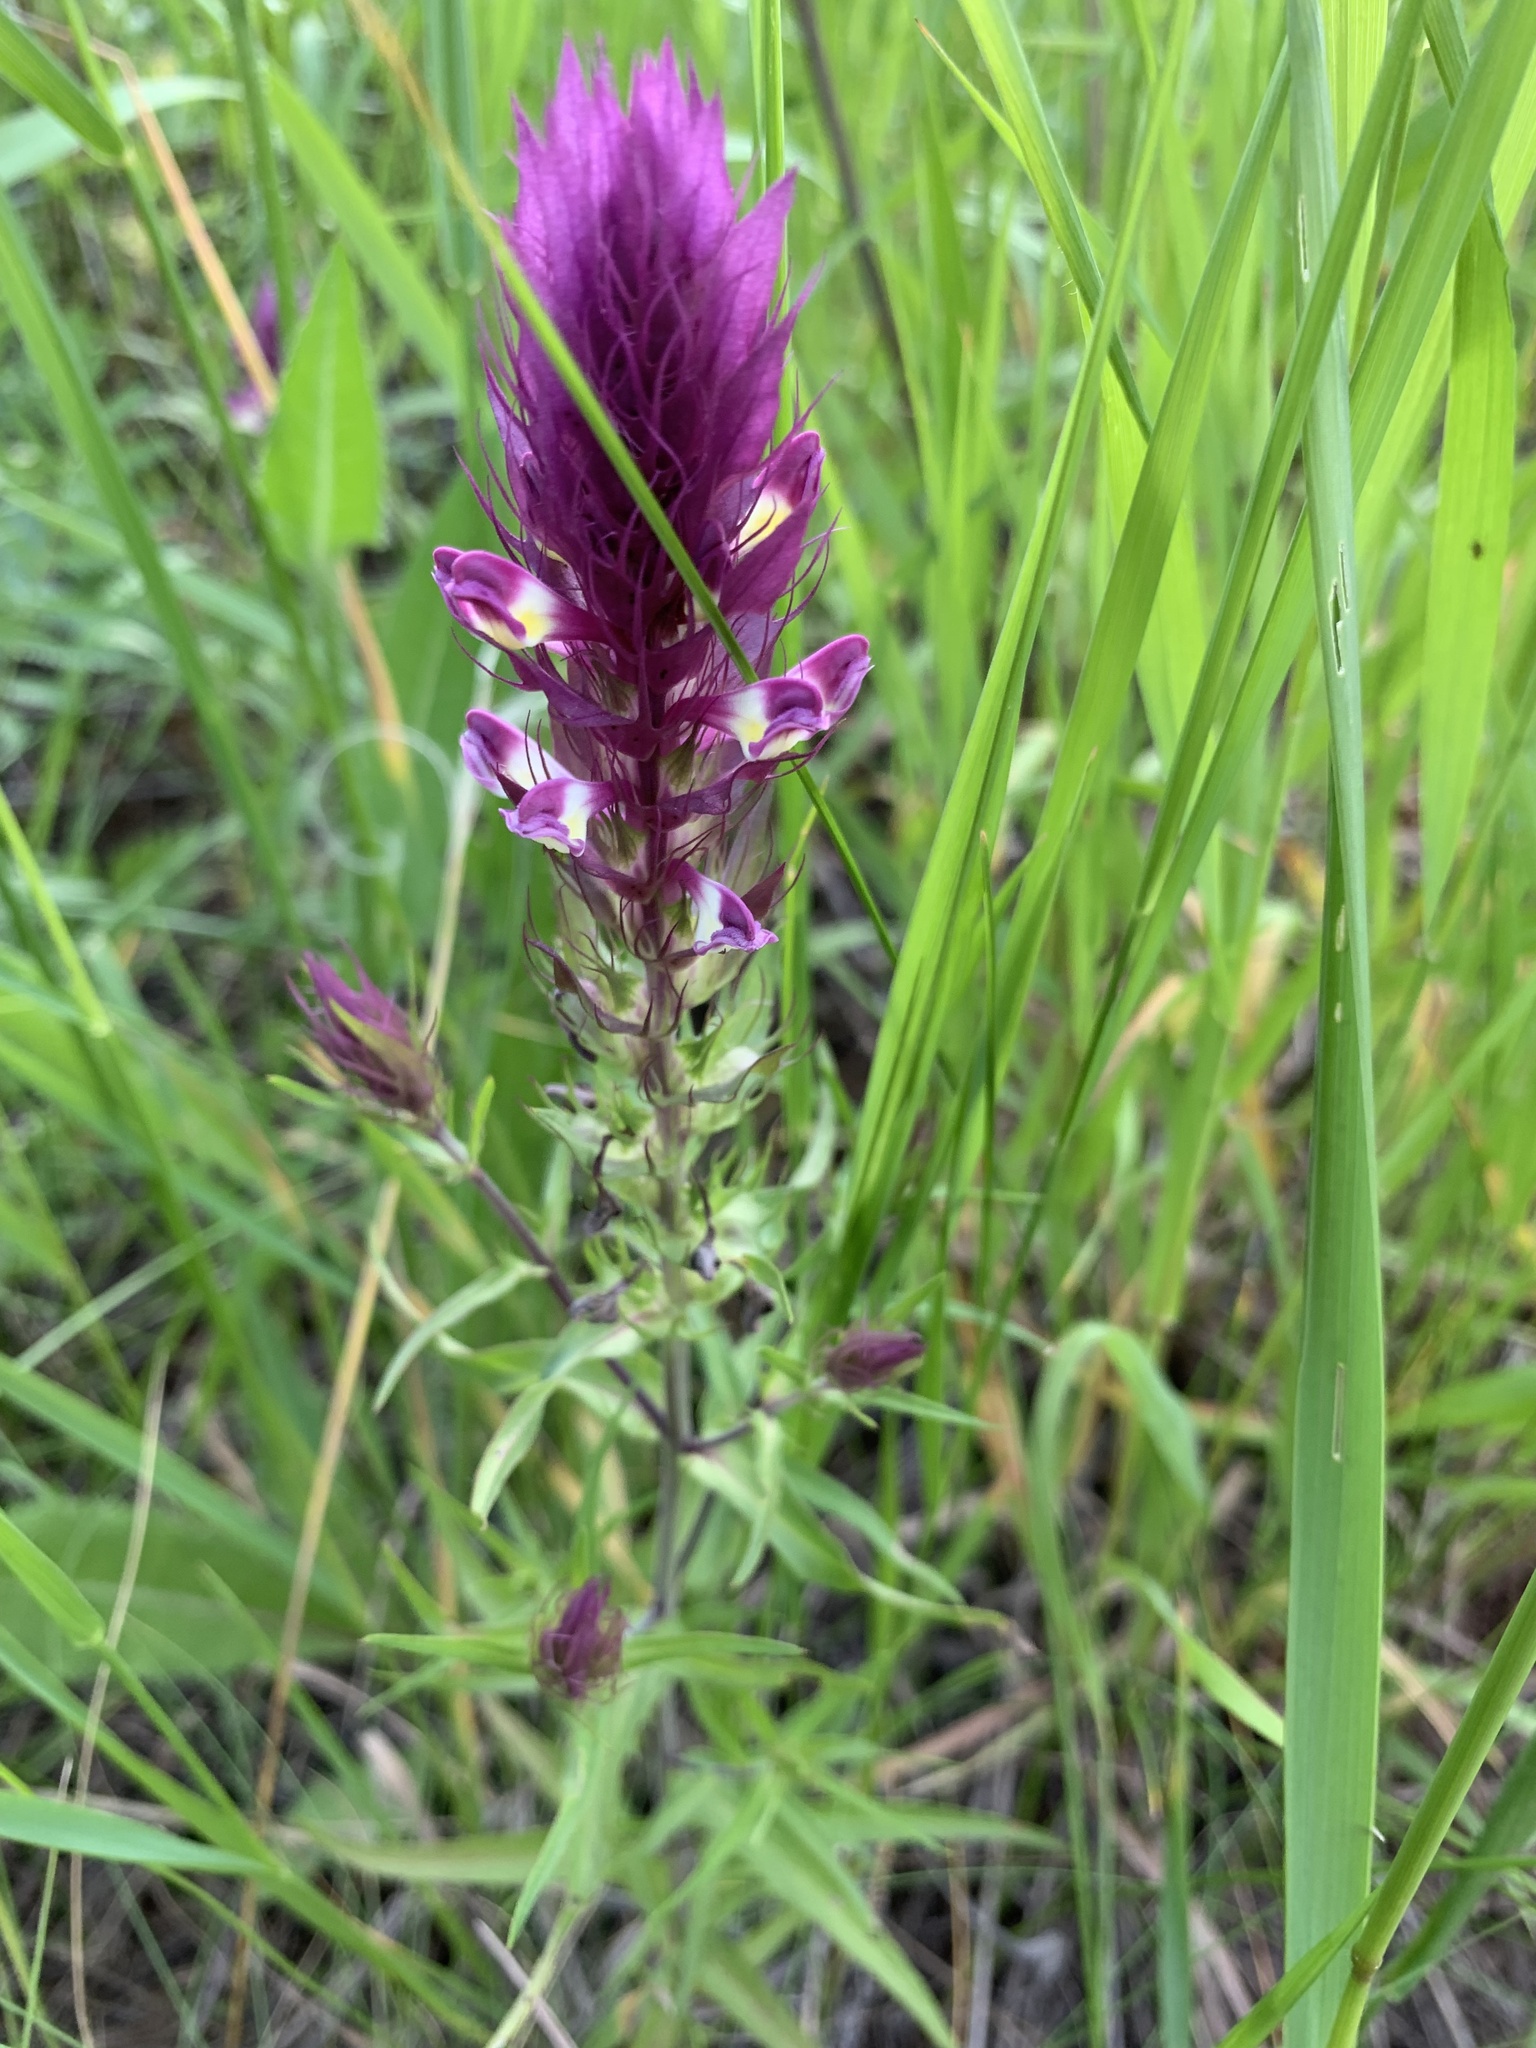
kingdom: Plantae
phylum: Tracheophyta
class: Magnoliopsida
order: Lamiales
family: Orobanchaceae
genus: Melampyrum
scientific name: Melampyrum arvense
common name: Field cow-wheat
